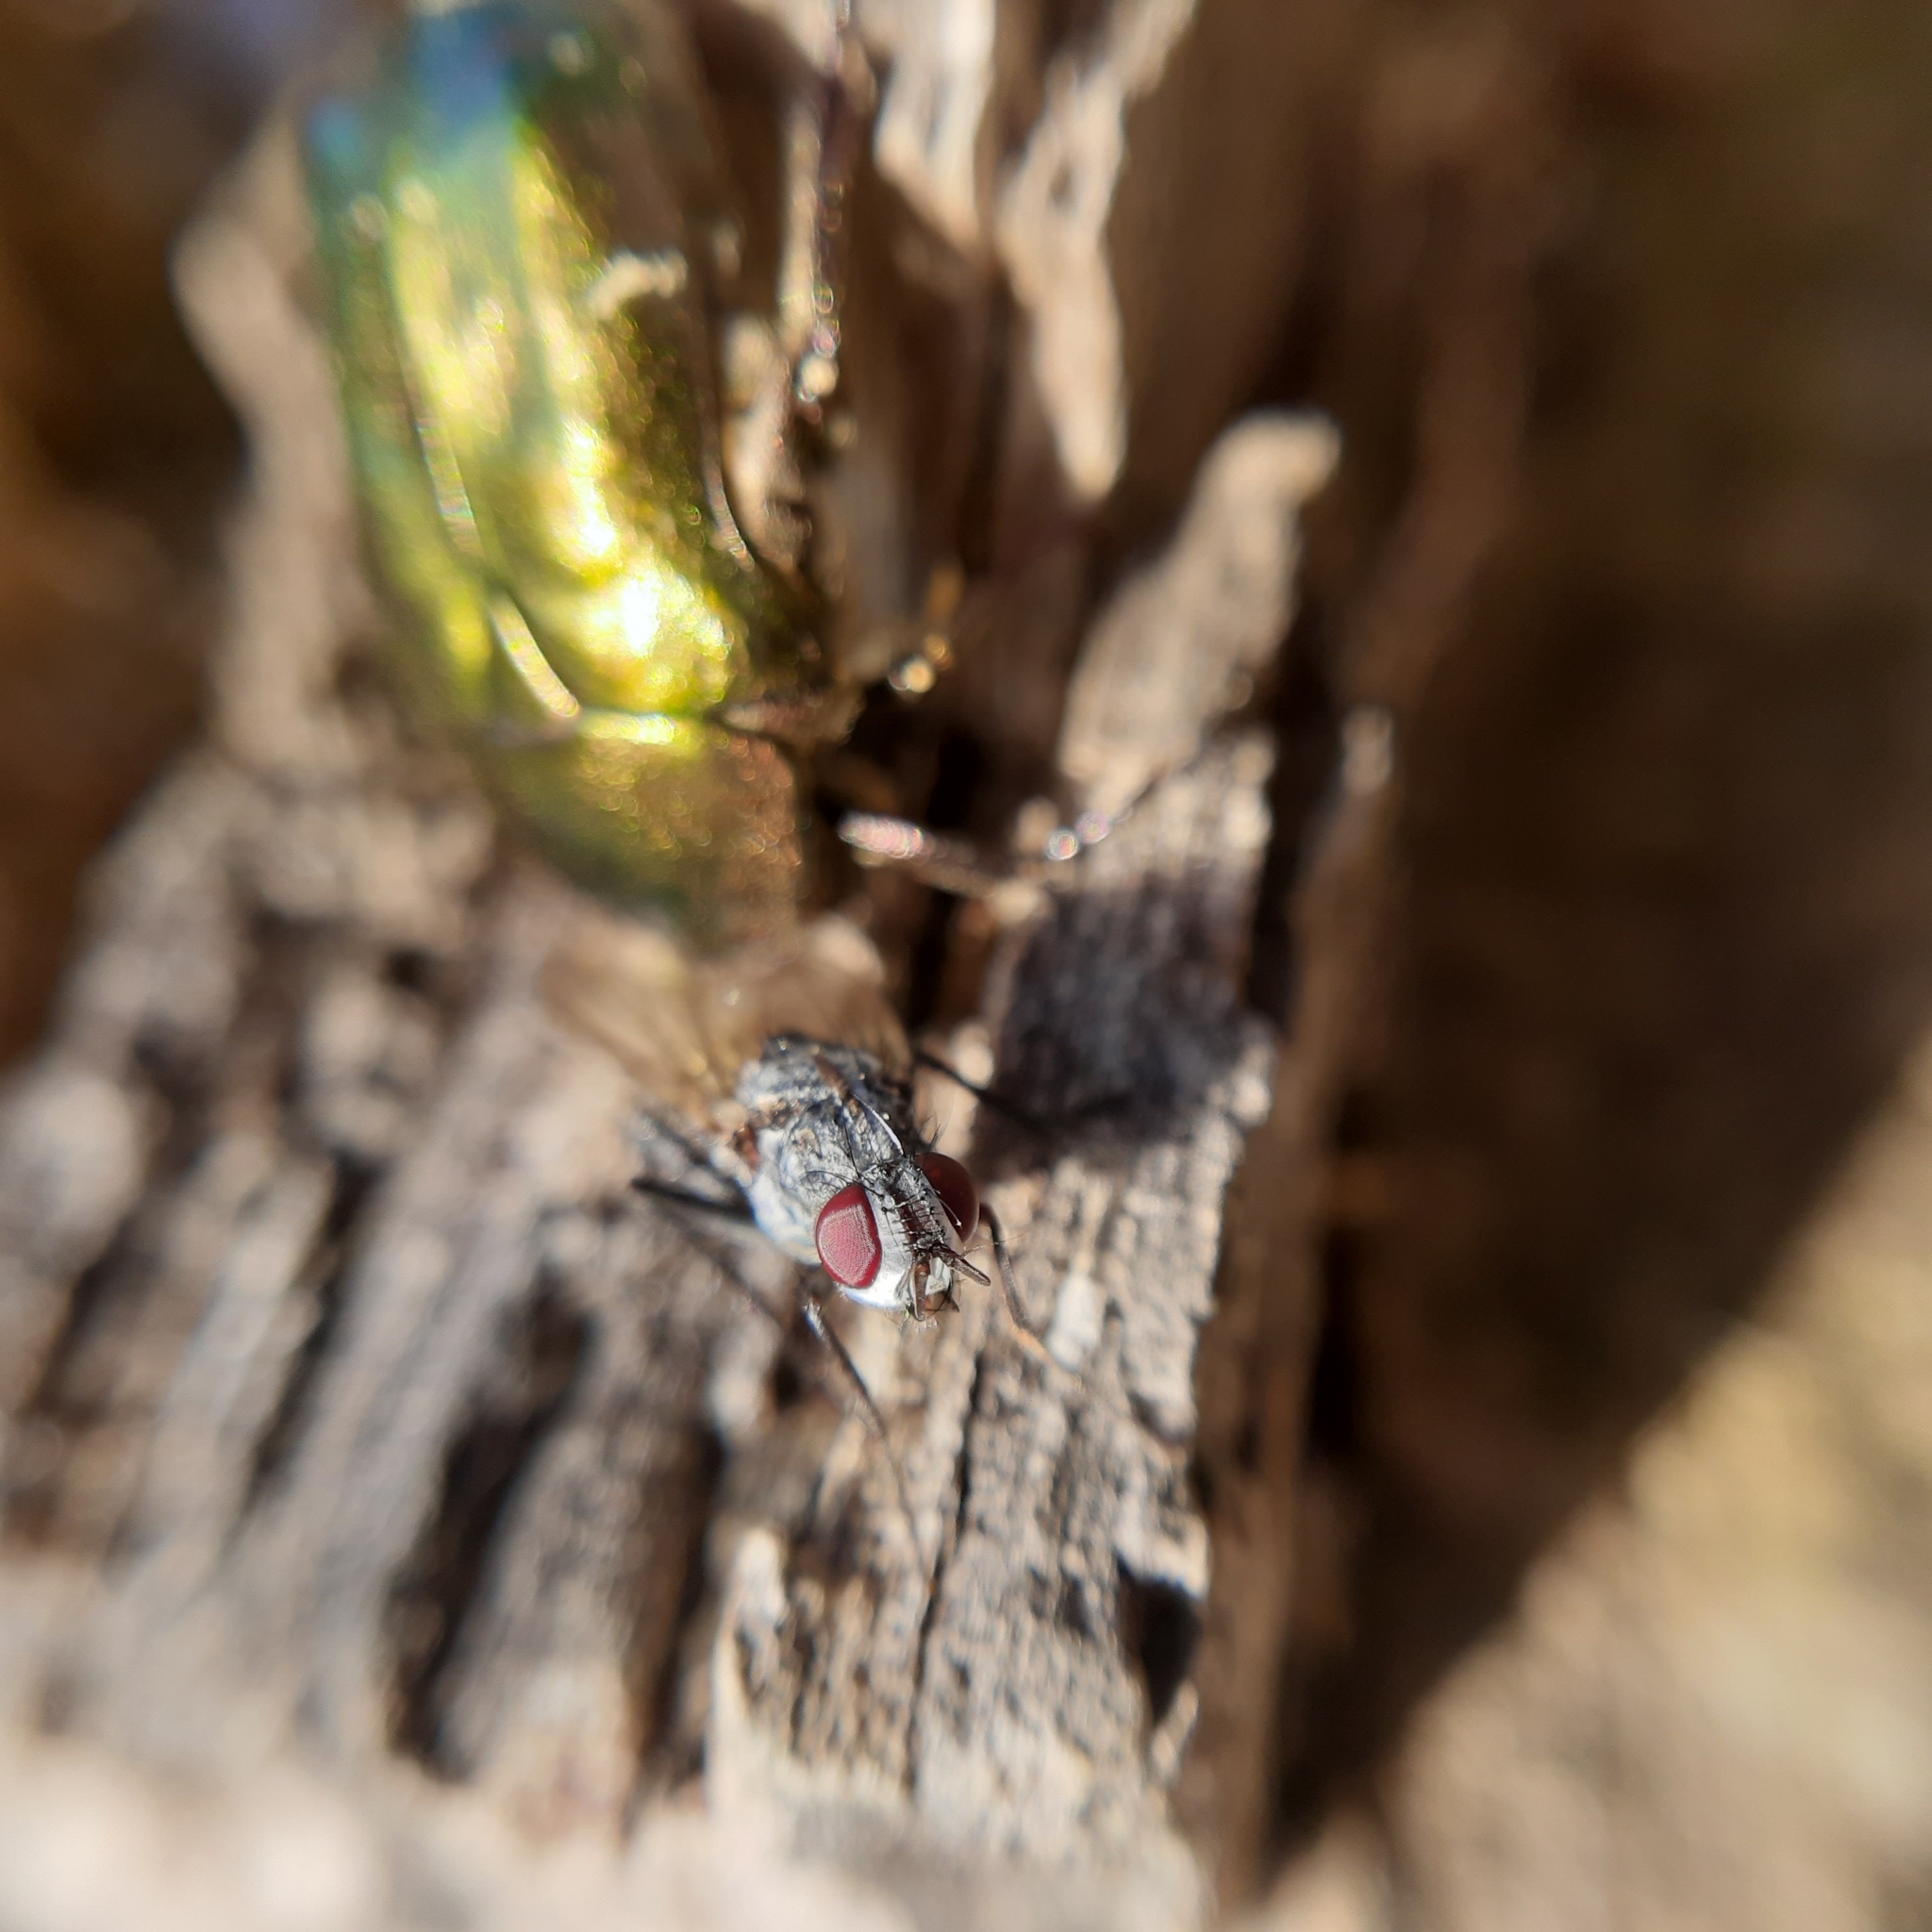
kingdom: Animalia
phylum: Arthropoda
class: Insecta
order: Diptera
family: Anthomyiidae
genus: Eustalomyia
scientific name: Eustalomyia
